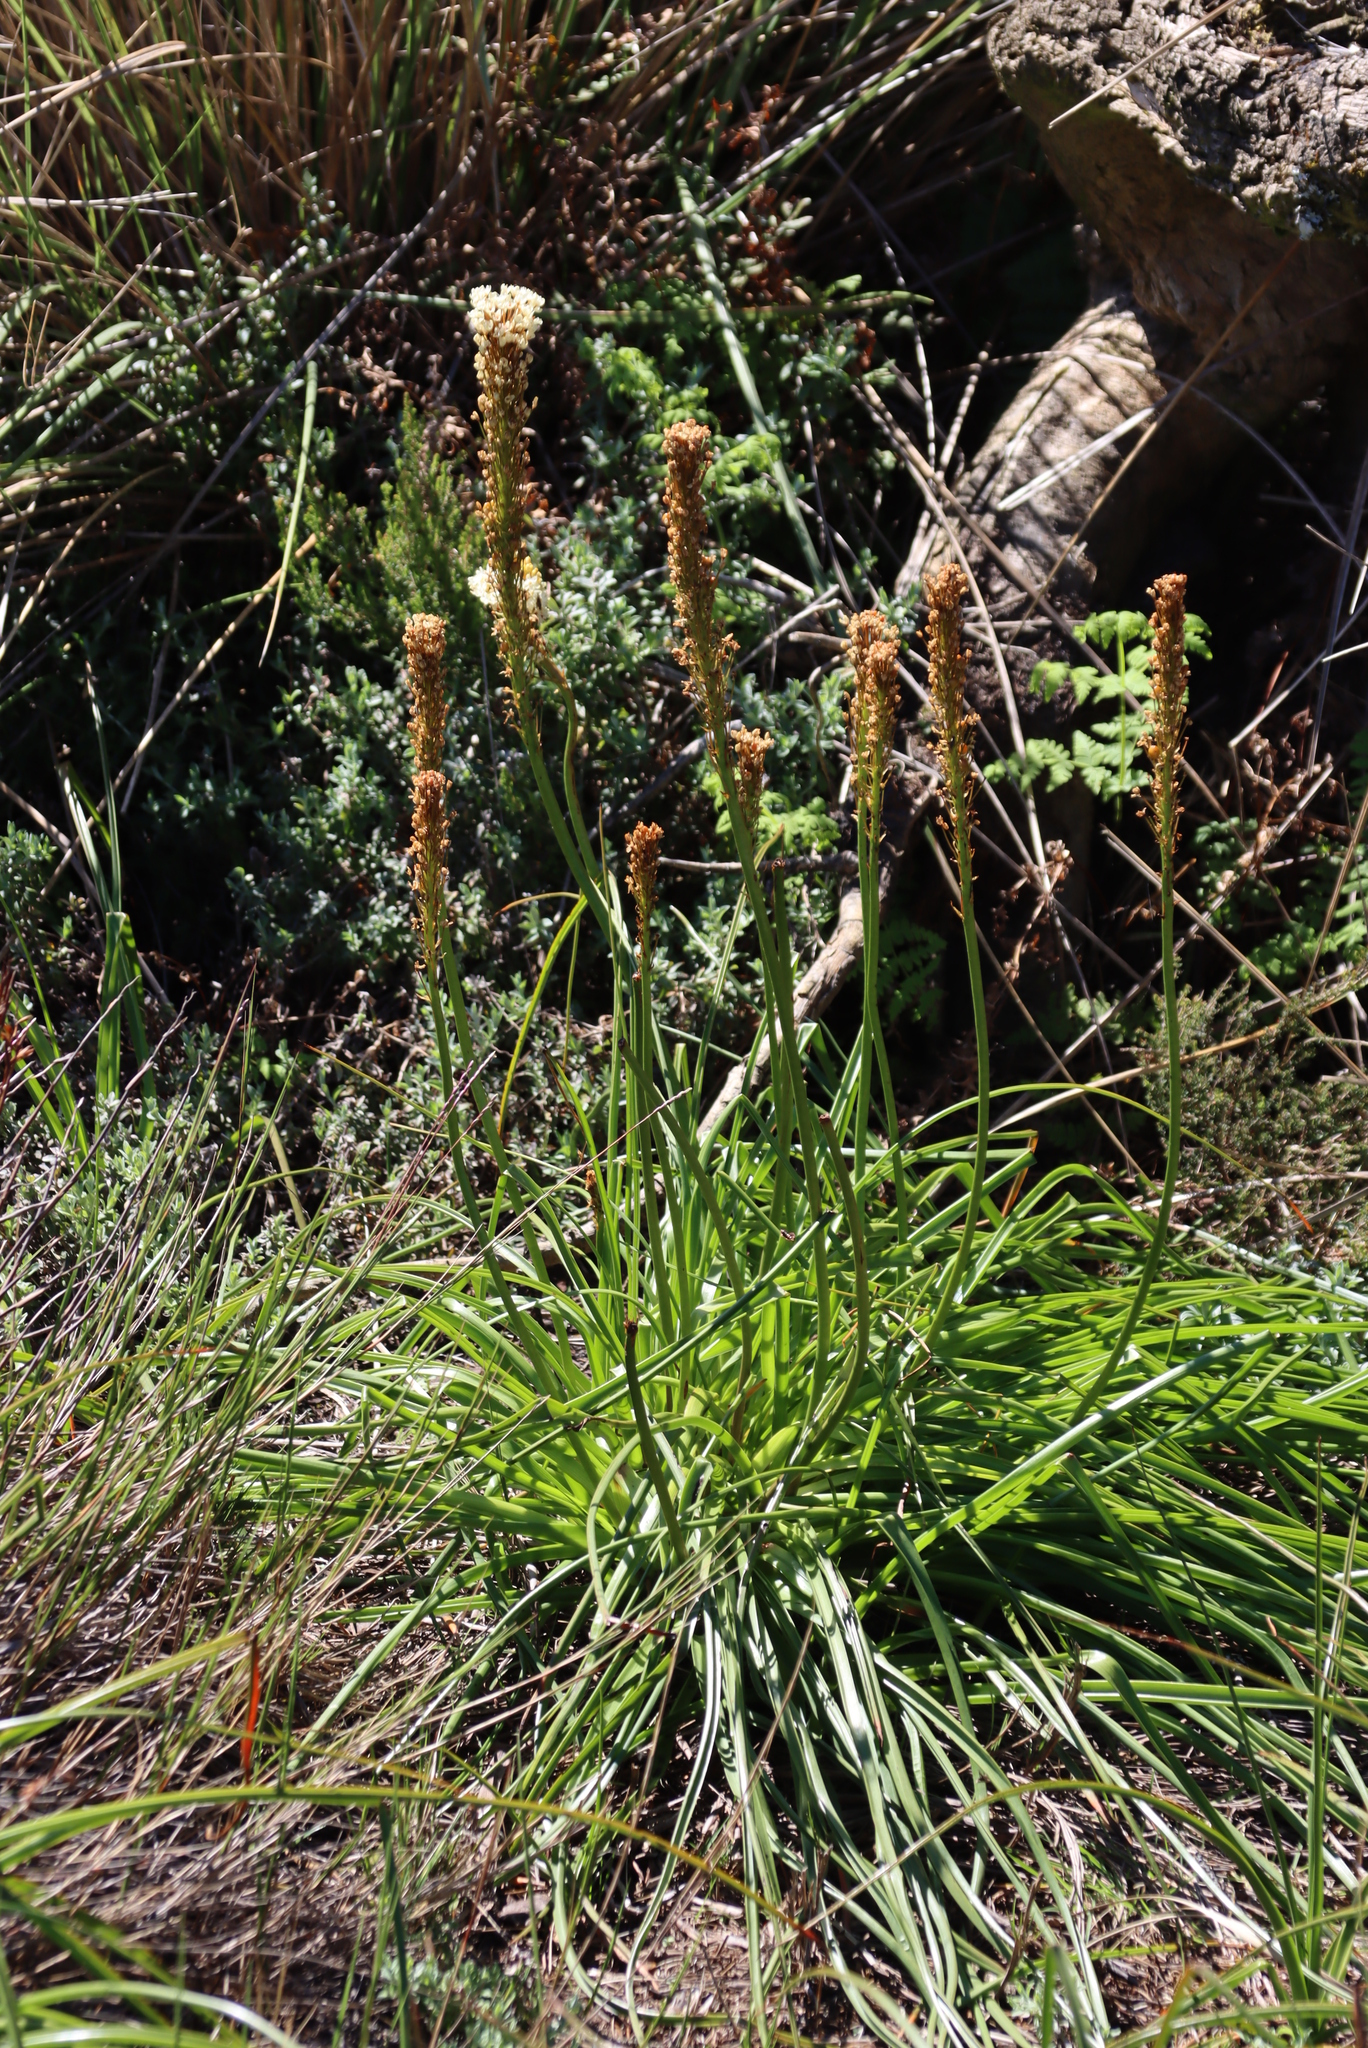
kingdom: Plantae
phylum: Tracheophyta
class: Liliopsida
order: Asparagales
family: Asphodelaceae
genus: Bulbinella
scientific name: Bulbinella nutans
